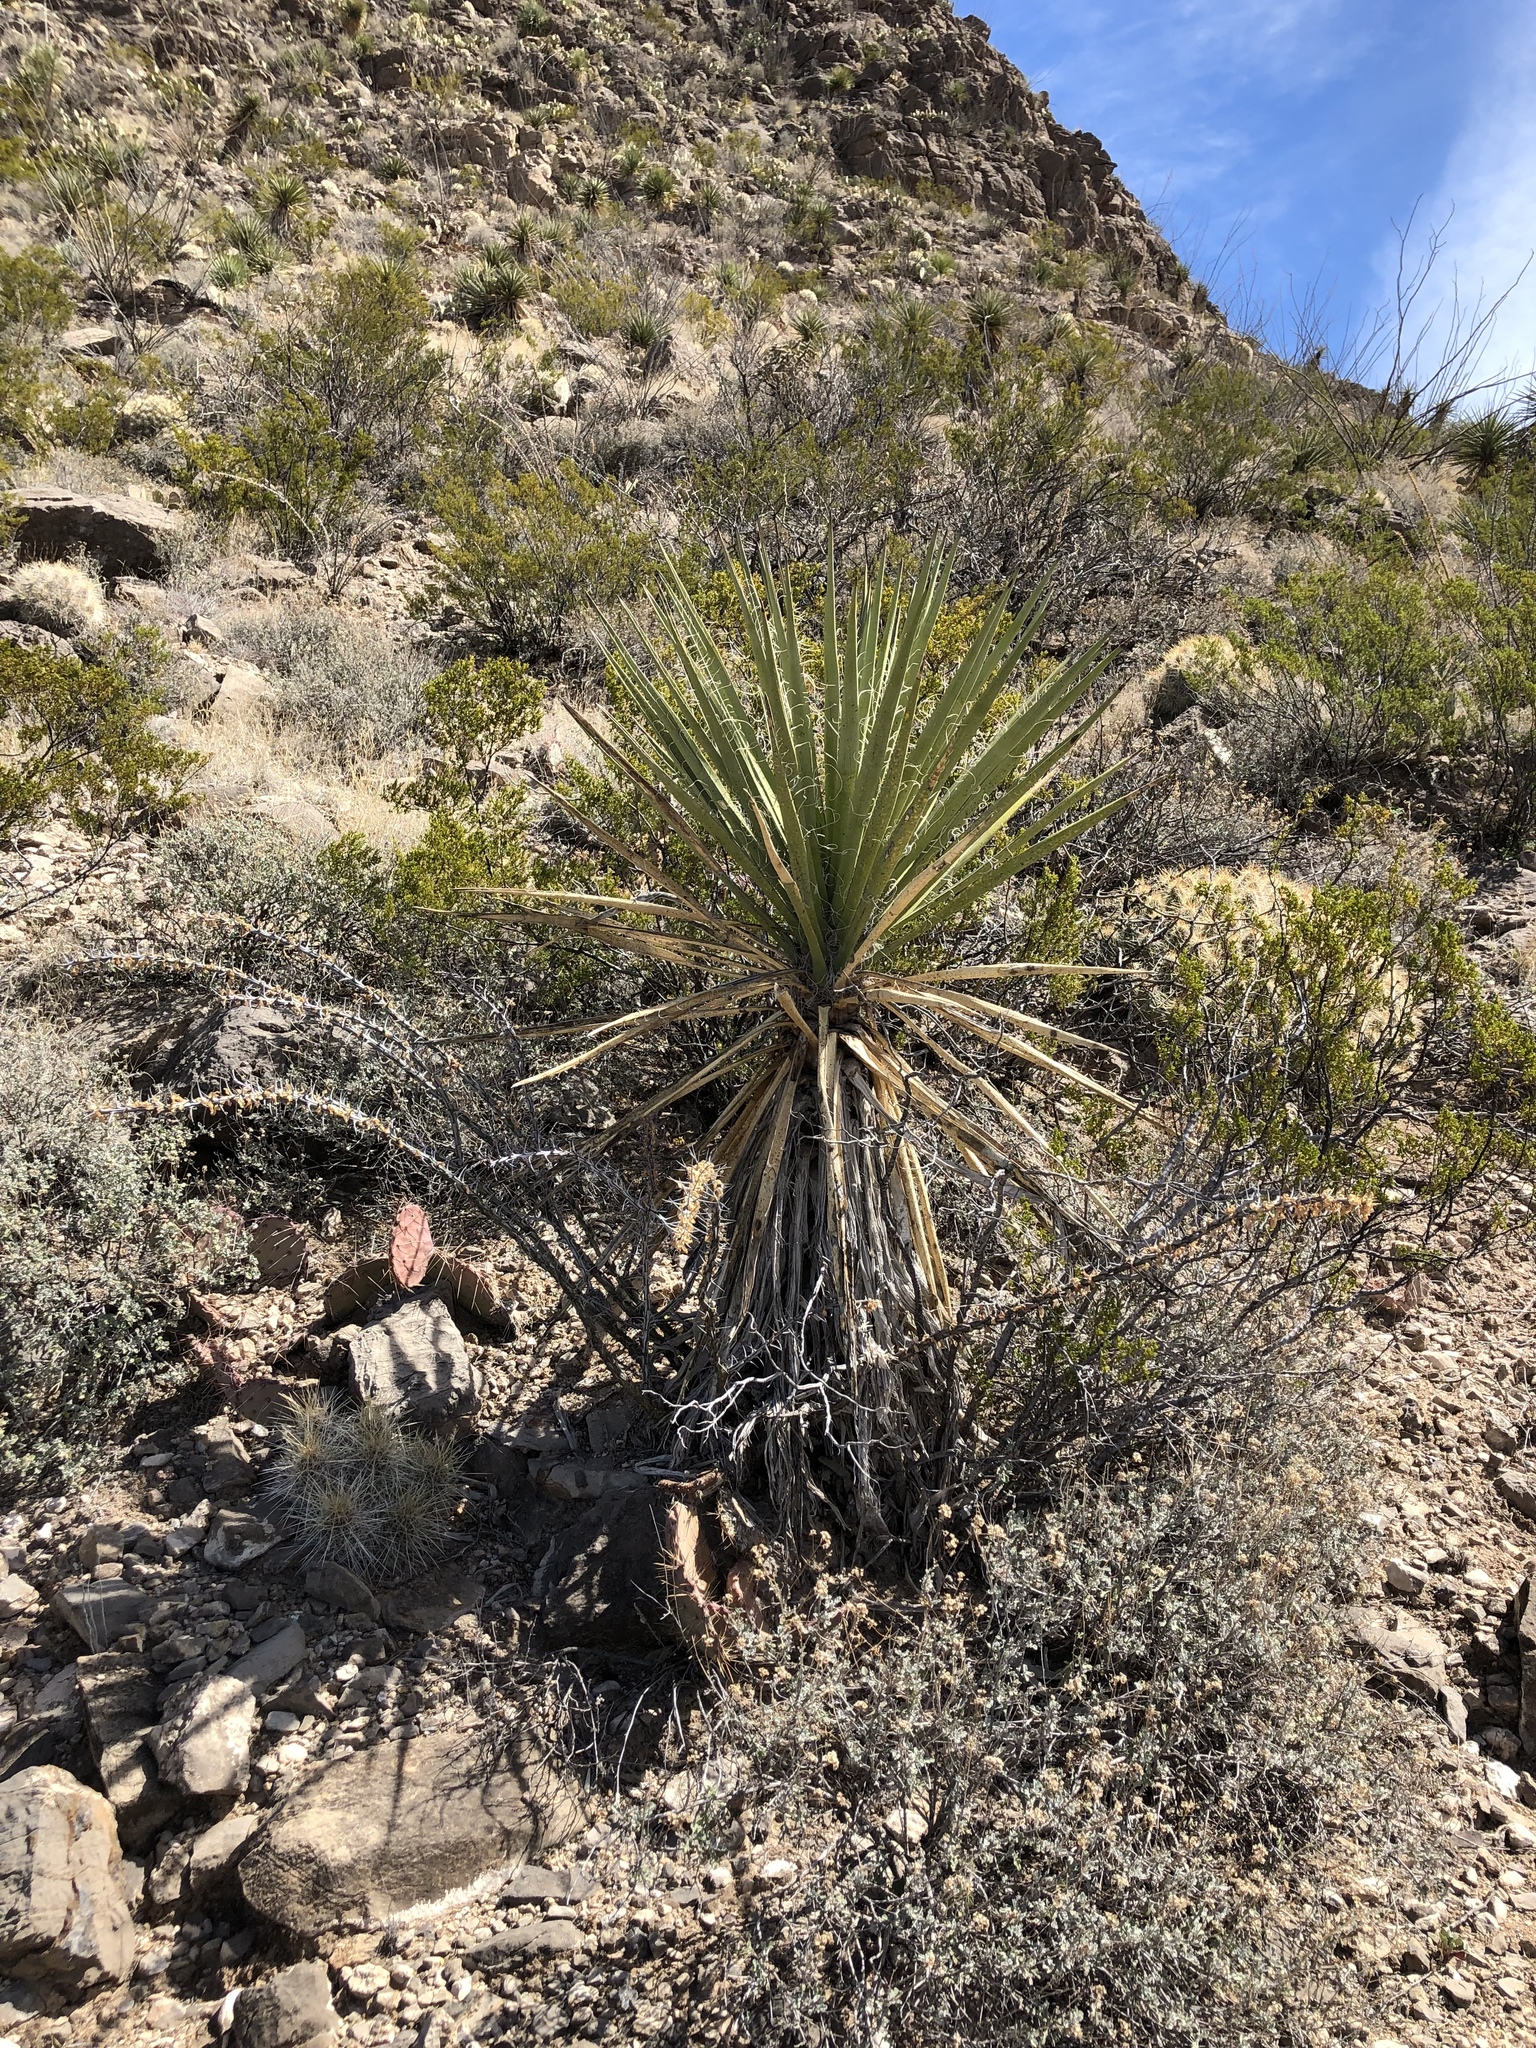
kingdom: Plantae
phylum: Tracheophyta
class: Liliopsida
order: Asparagales
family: Asparagaceae
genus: Yucca
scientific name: Yucca treculiana
